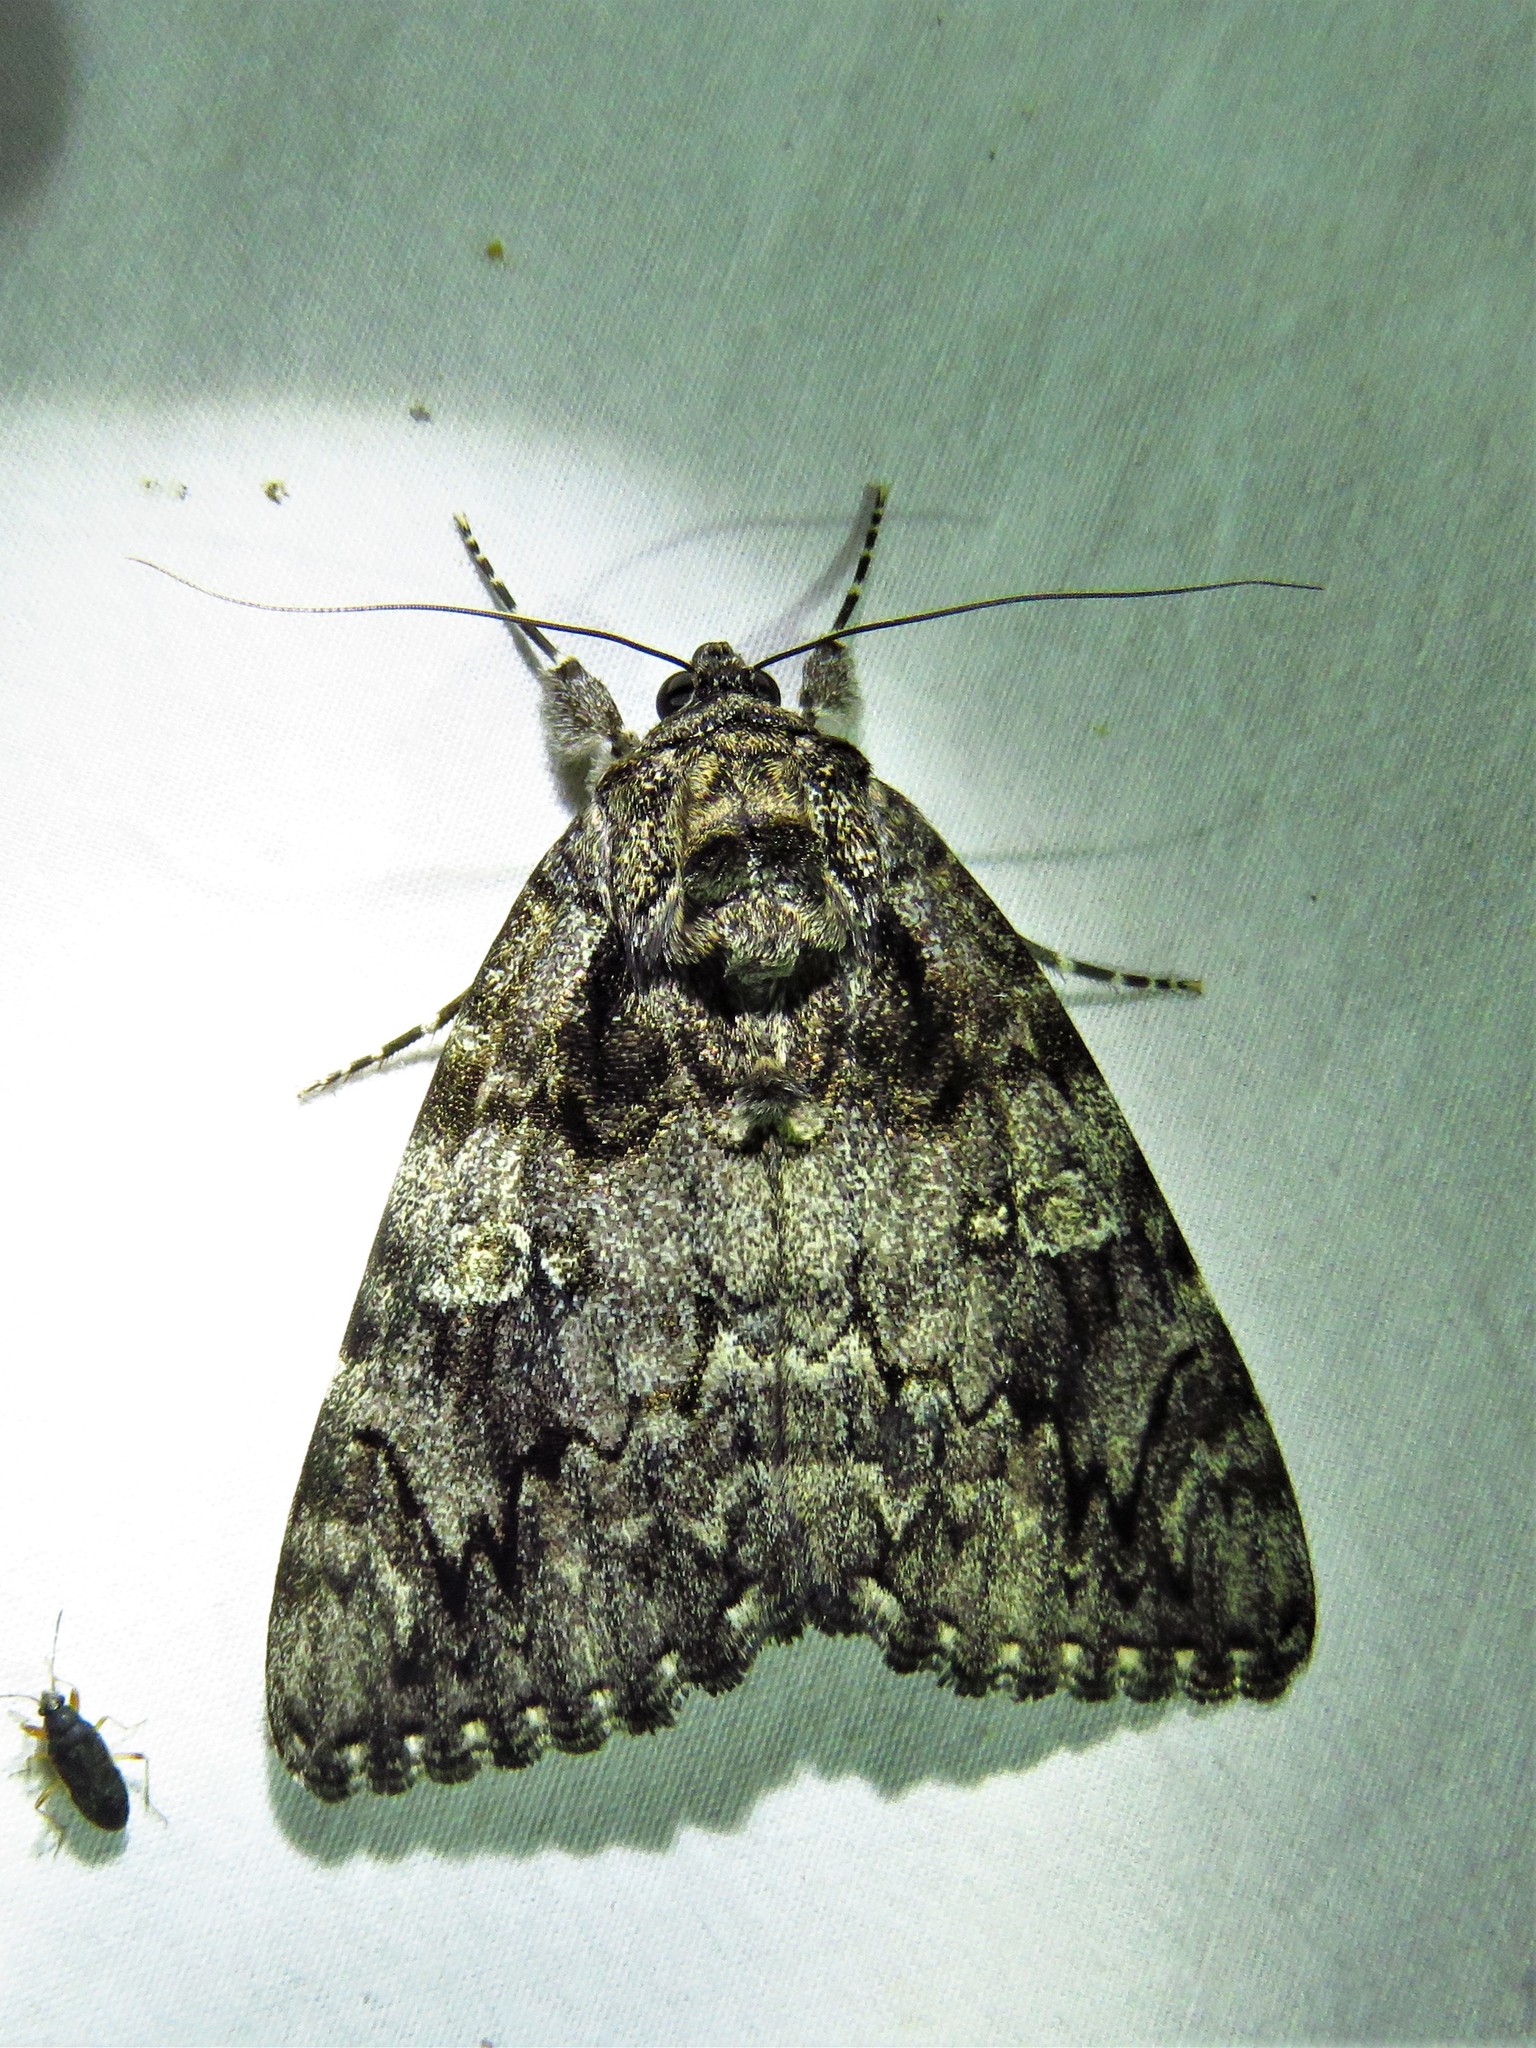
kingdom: Animalia
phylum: Arthropoda
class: Insecta
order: Lepidoptera
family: Erebidae
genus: Catocala
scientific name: Catocala ilia
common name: Ilia underwing
